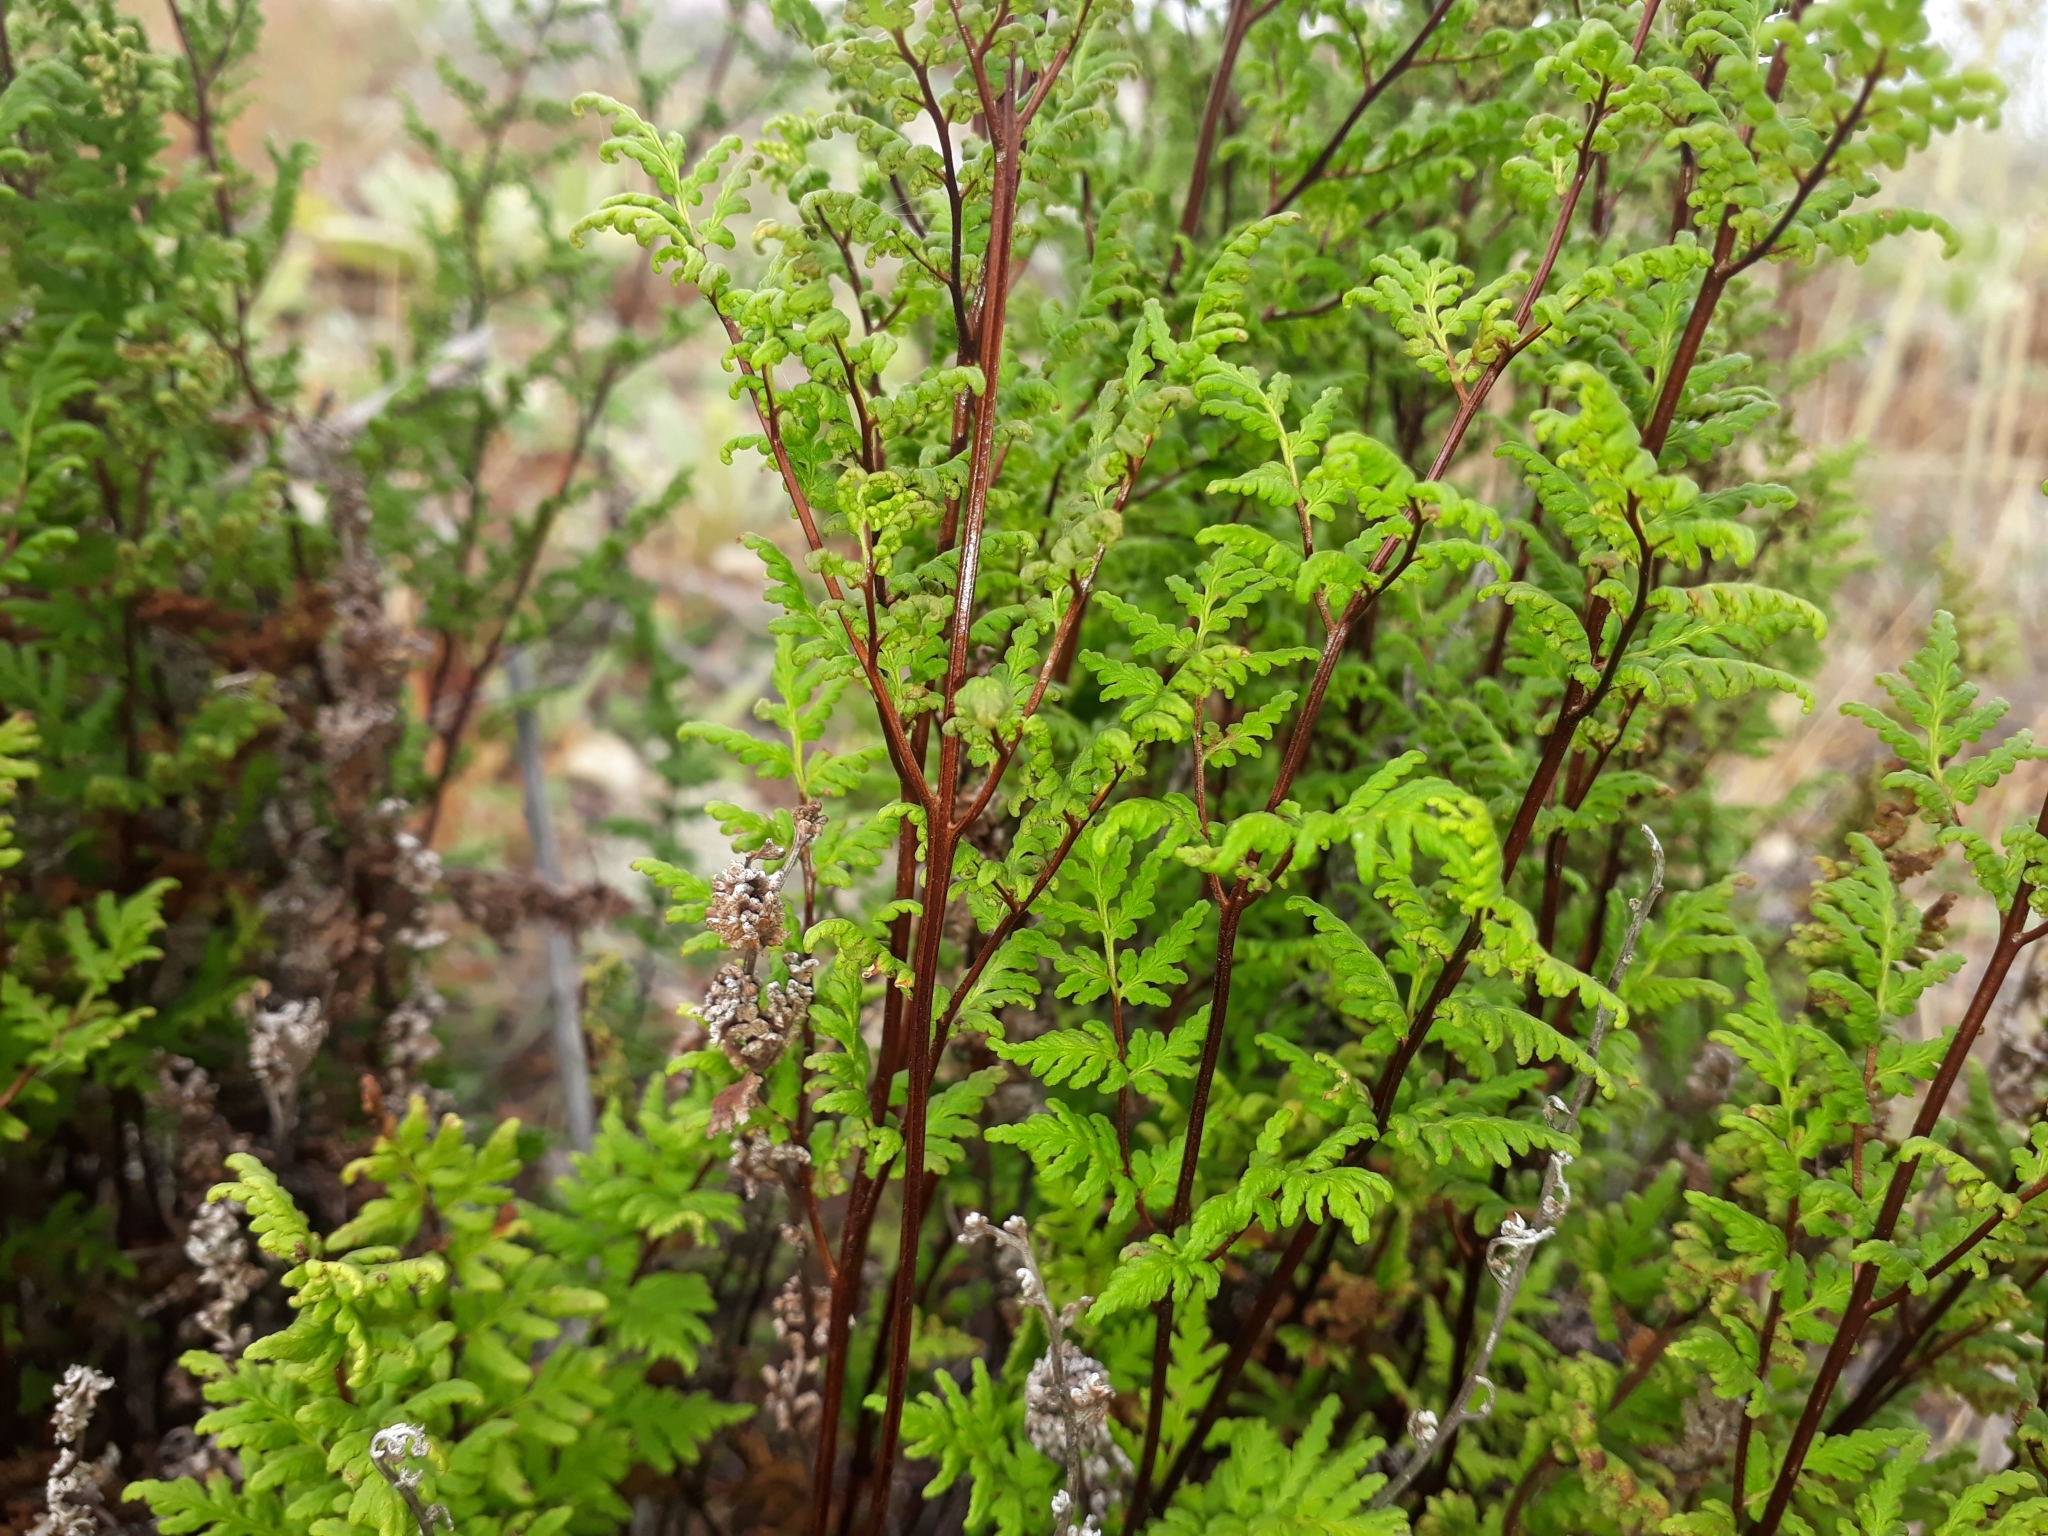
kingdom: Plantae
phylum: Tracheophyta
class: Polypodiopsida
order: Polypodiales
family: Pteridaceae
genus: Cheilanthes
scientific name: Cheilanthes sieberi
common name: Mulga fern
